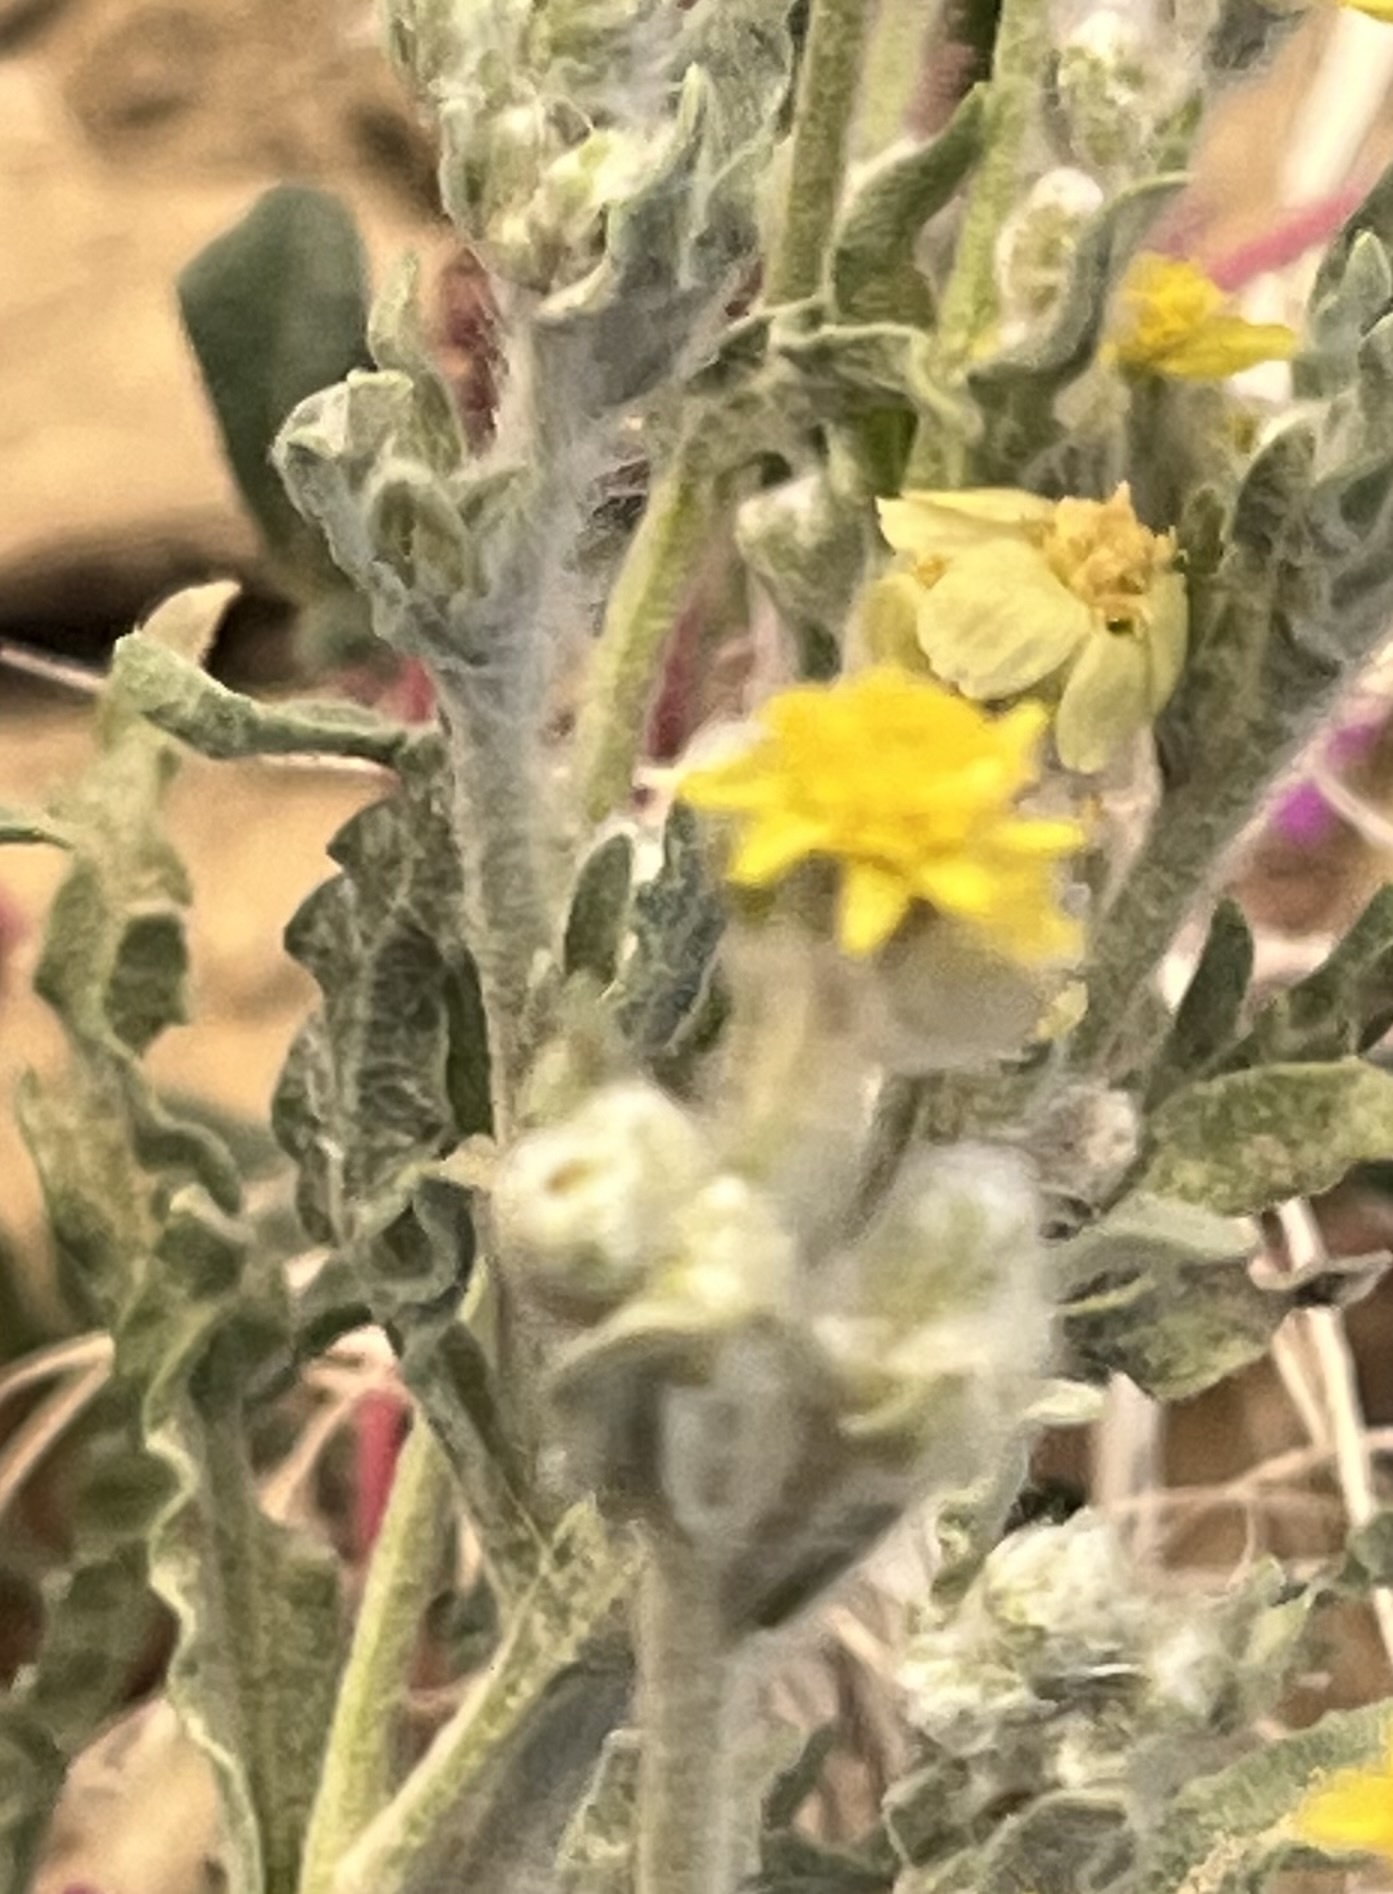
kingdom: Plantae
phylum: Tracheophyta
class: Magnoliopsida
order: Asterales
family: Asteraceae
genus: Baileya
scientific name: Baileya pauciradiata
